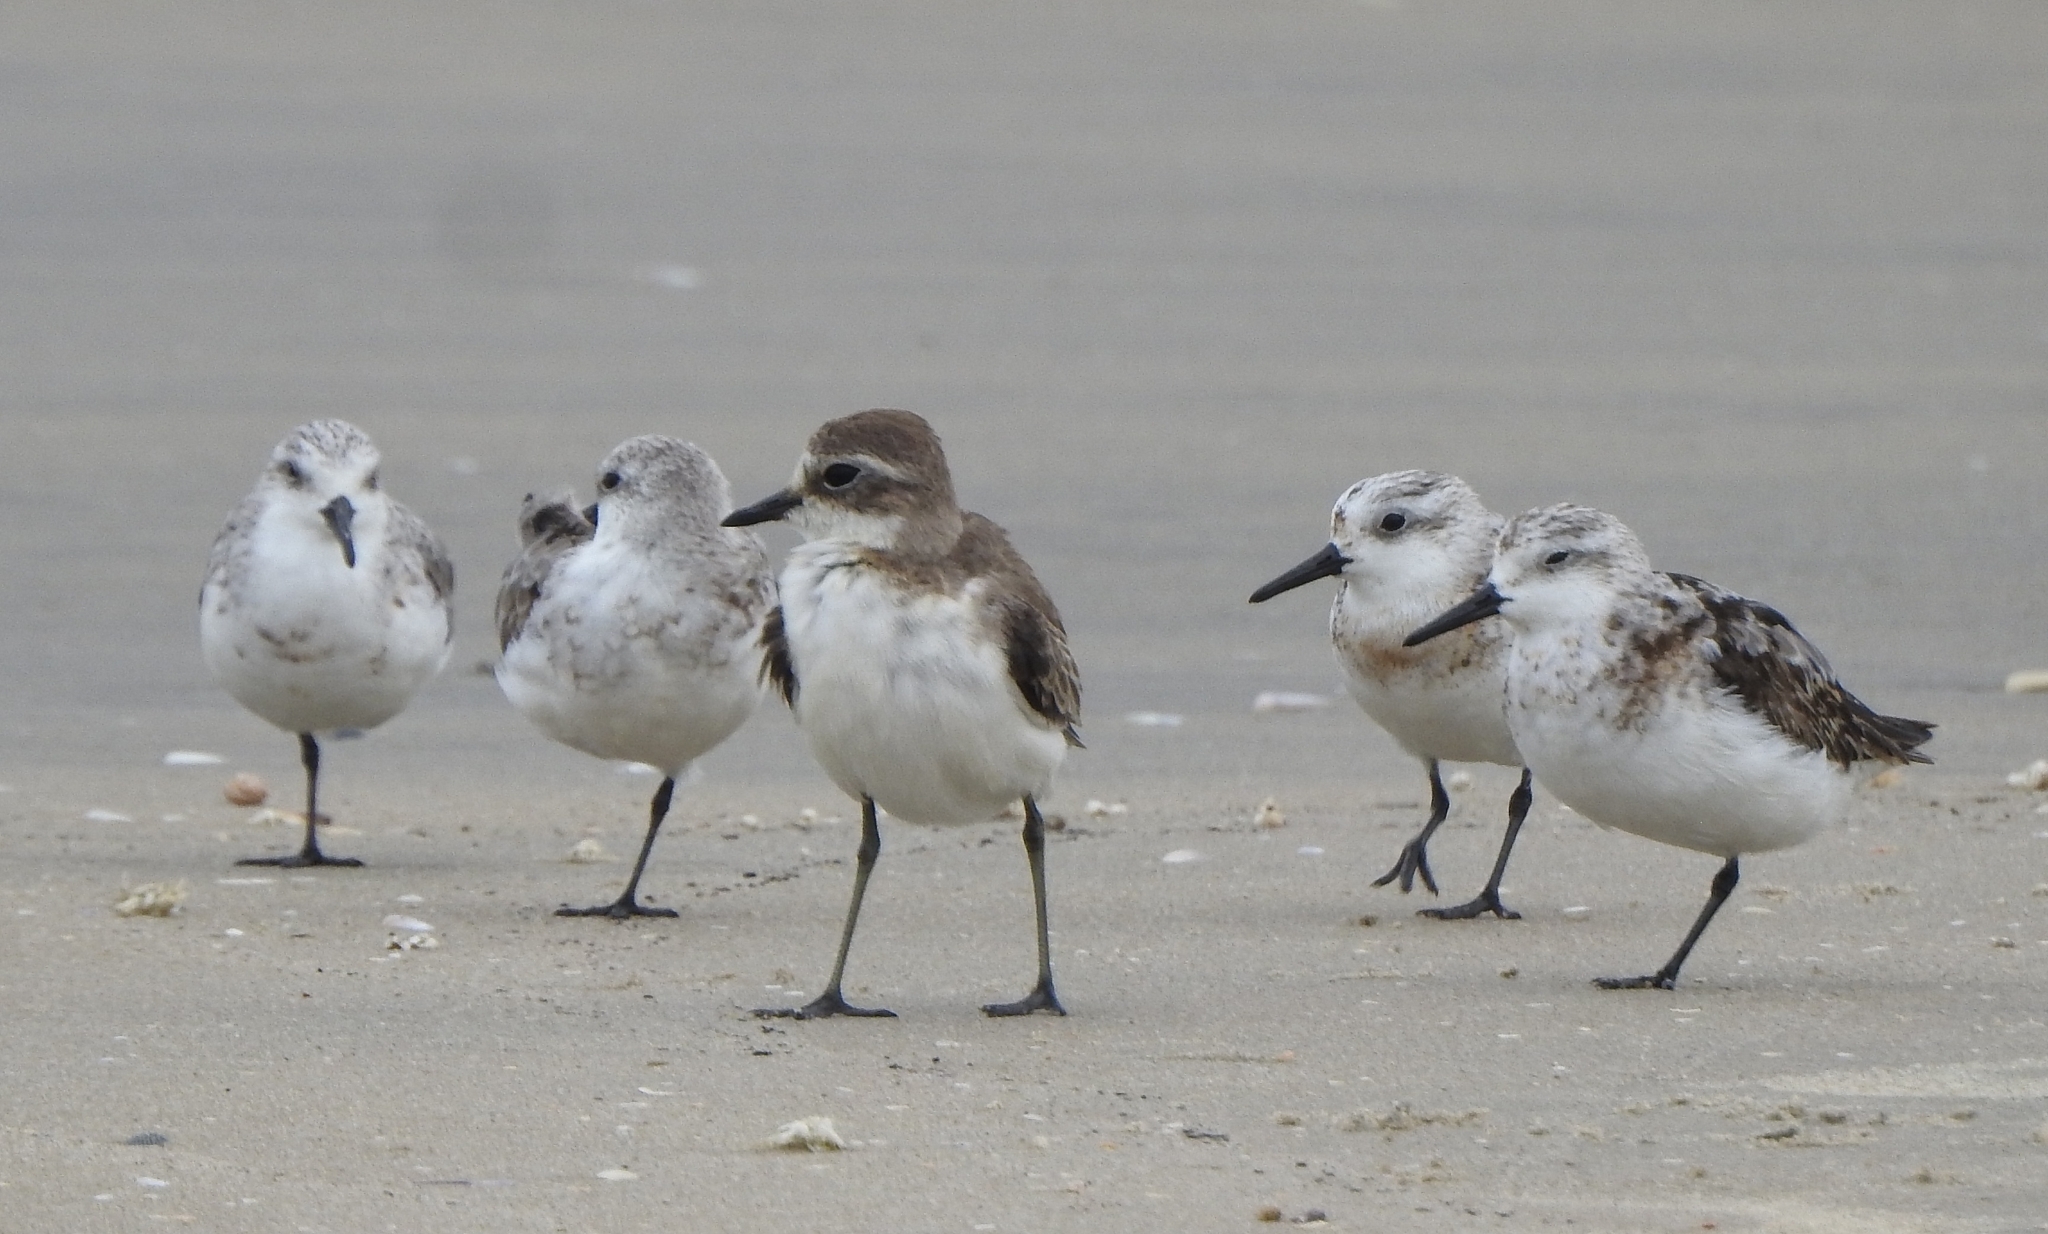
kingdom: Animalia
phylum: Chordata
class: Aves
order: Charadriiformes
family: Scolopacidae
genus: Calidris
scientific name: Calidris alba
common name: Sanderling
